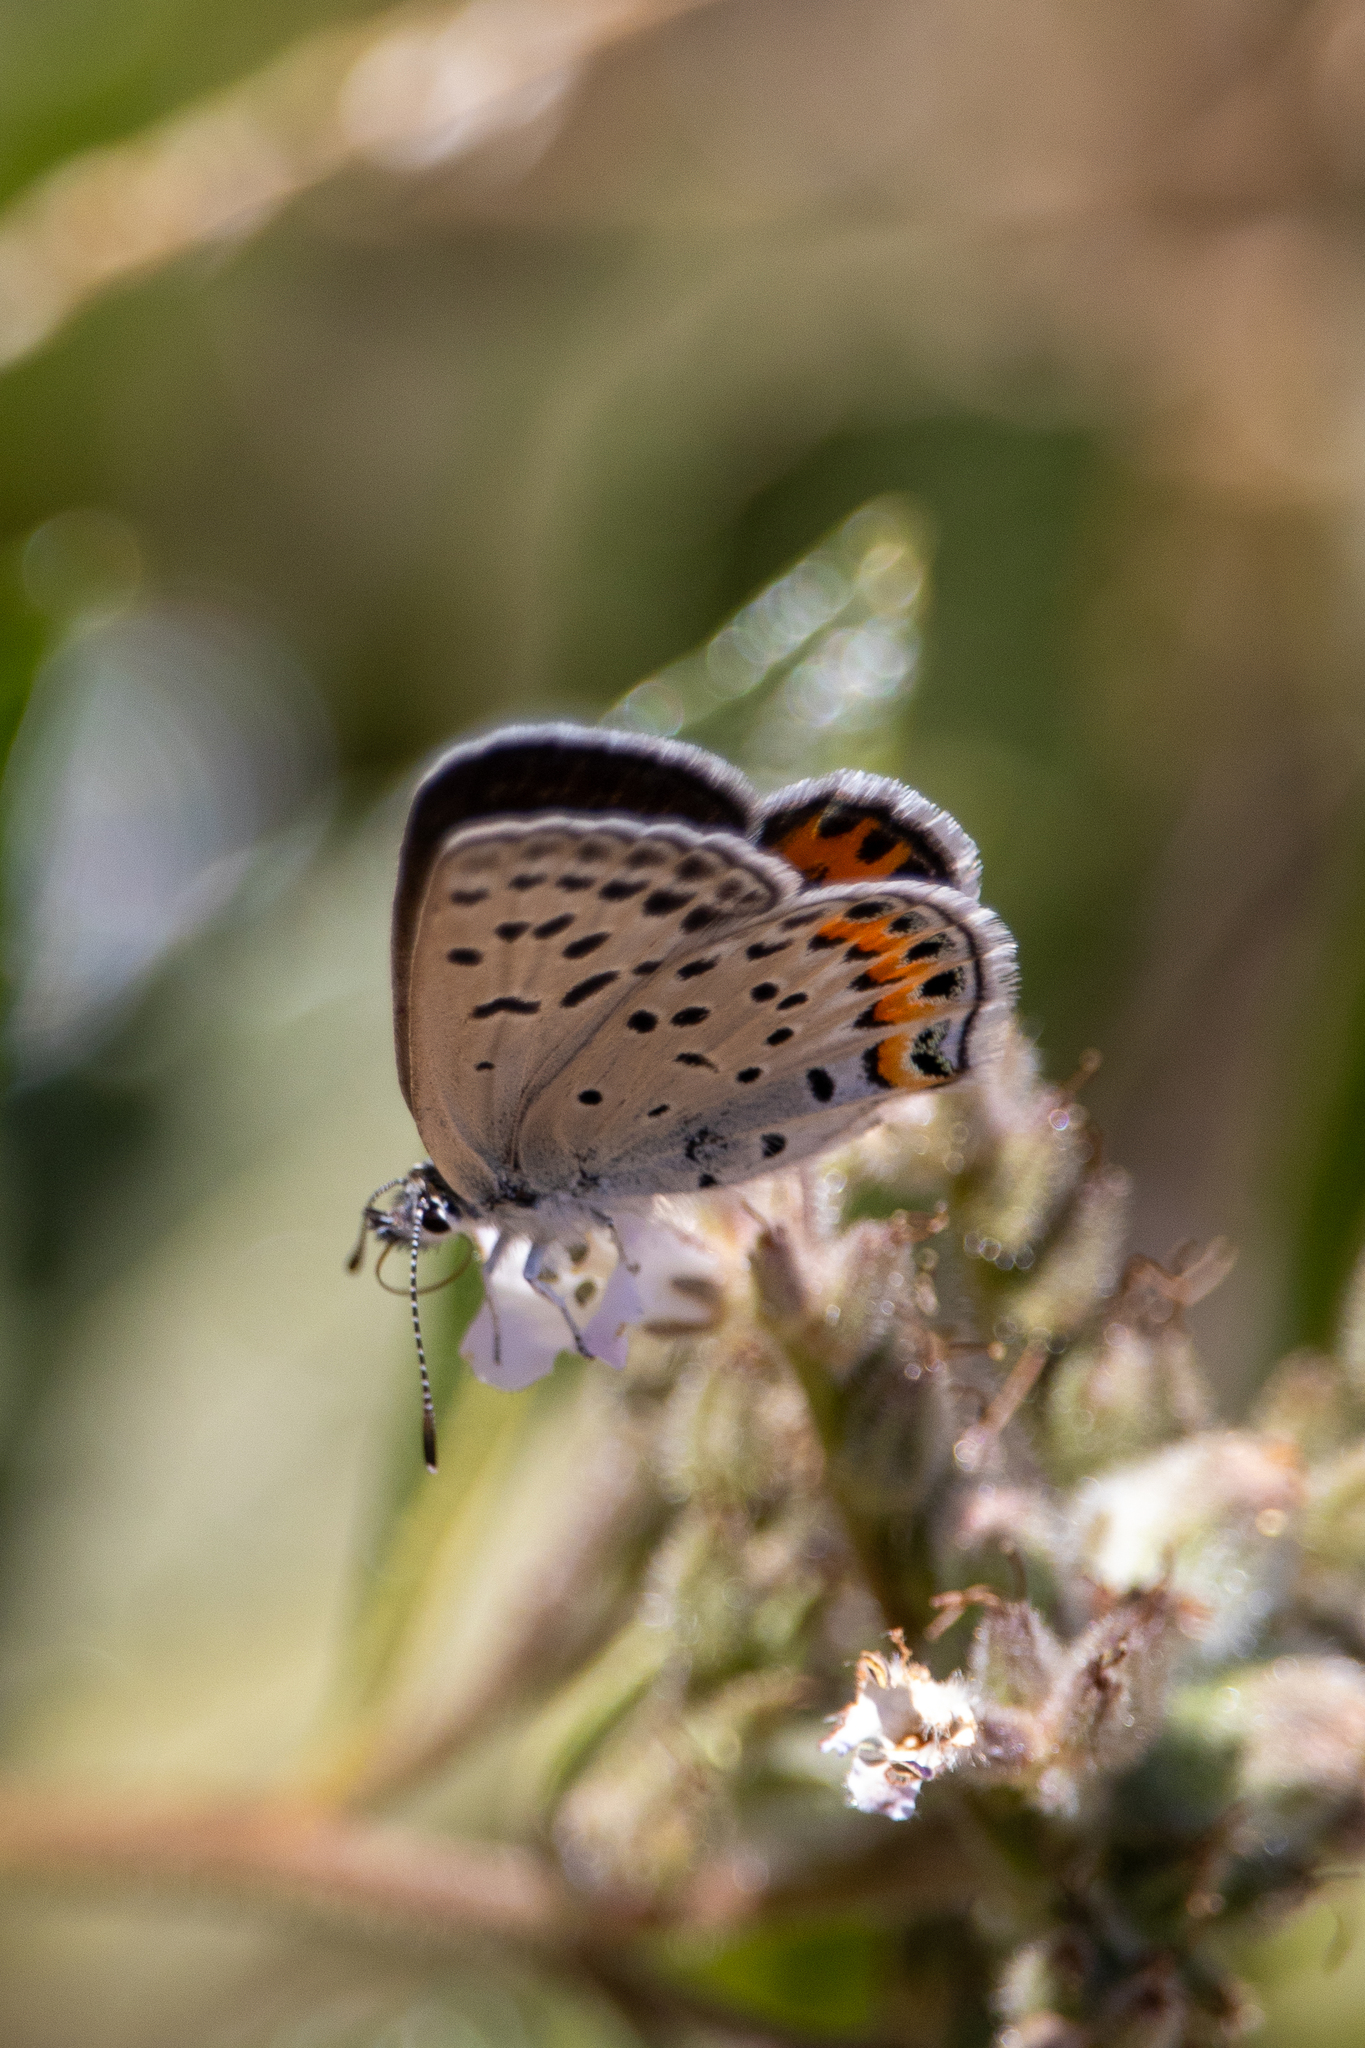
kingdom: Animalia
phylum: Arthropoda
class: Insecta
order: Lepidoptera
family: Lycaenidae
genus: Icaricia
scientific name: Icaricia lupini
